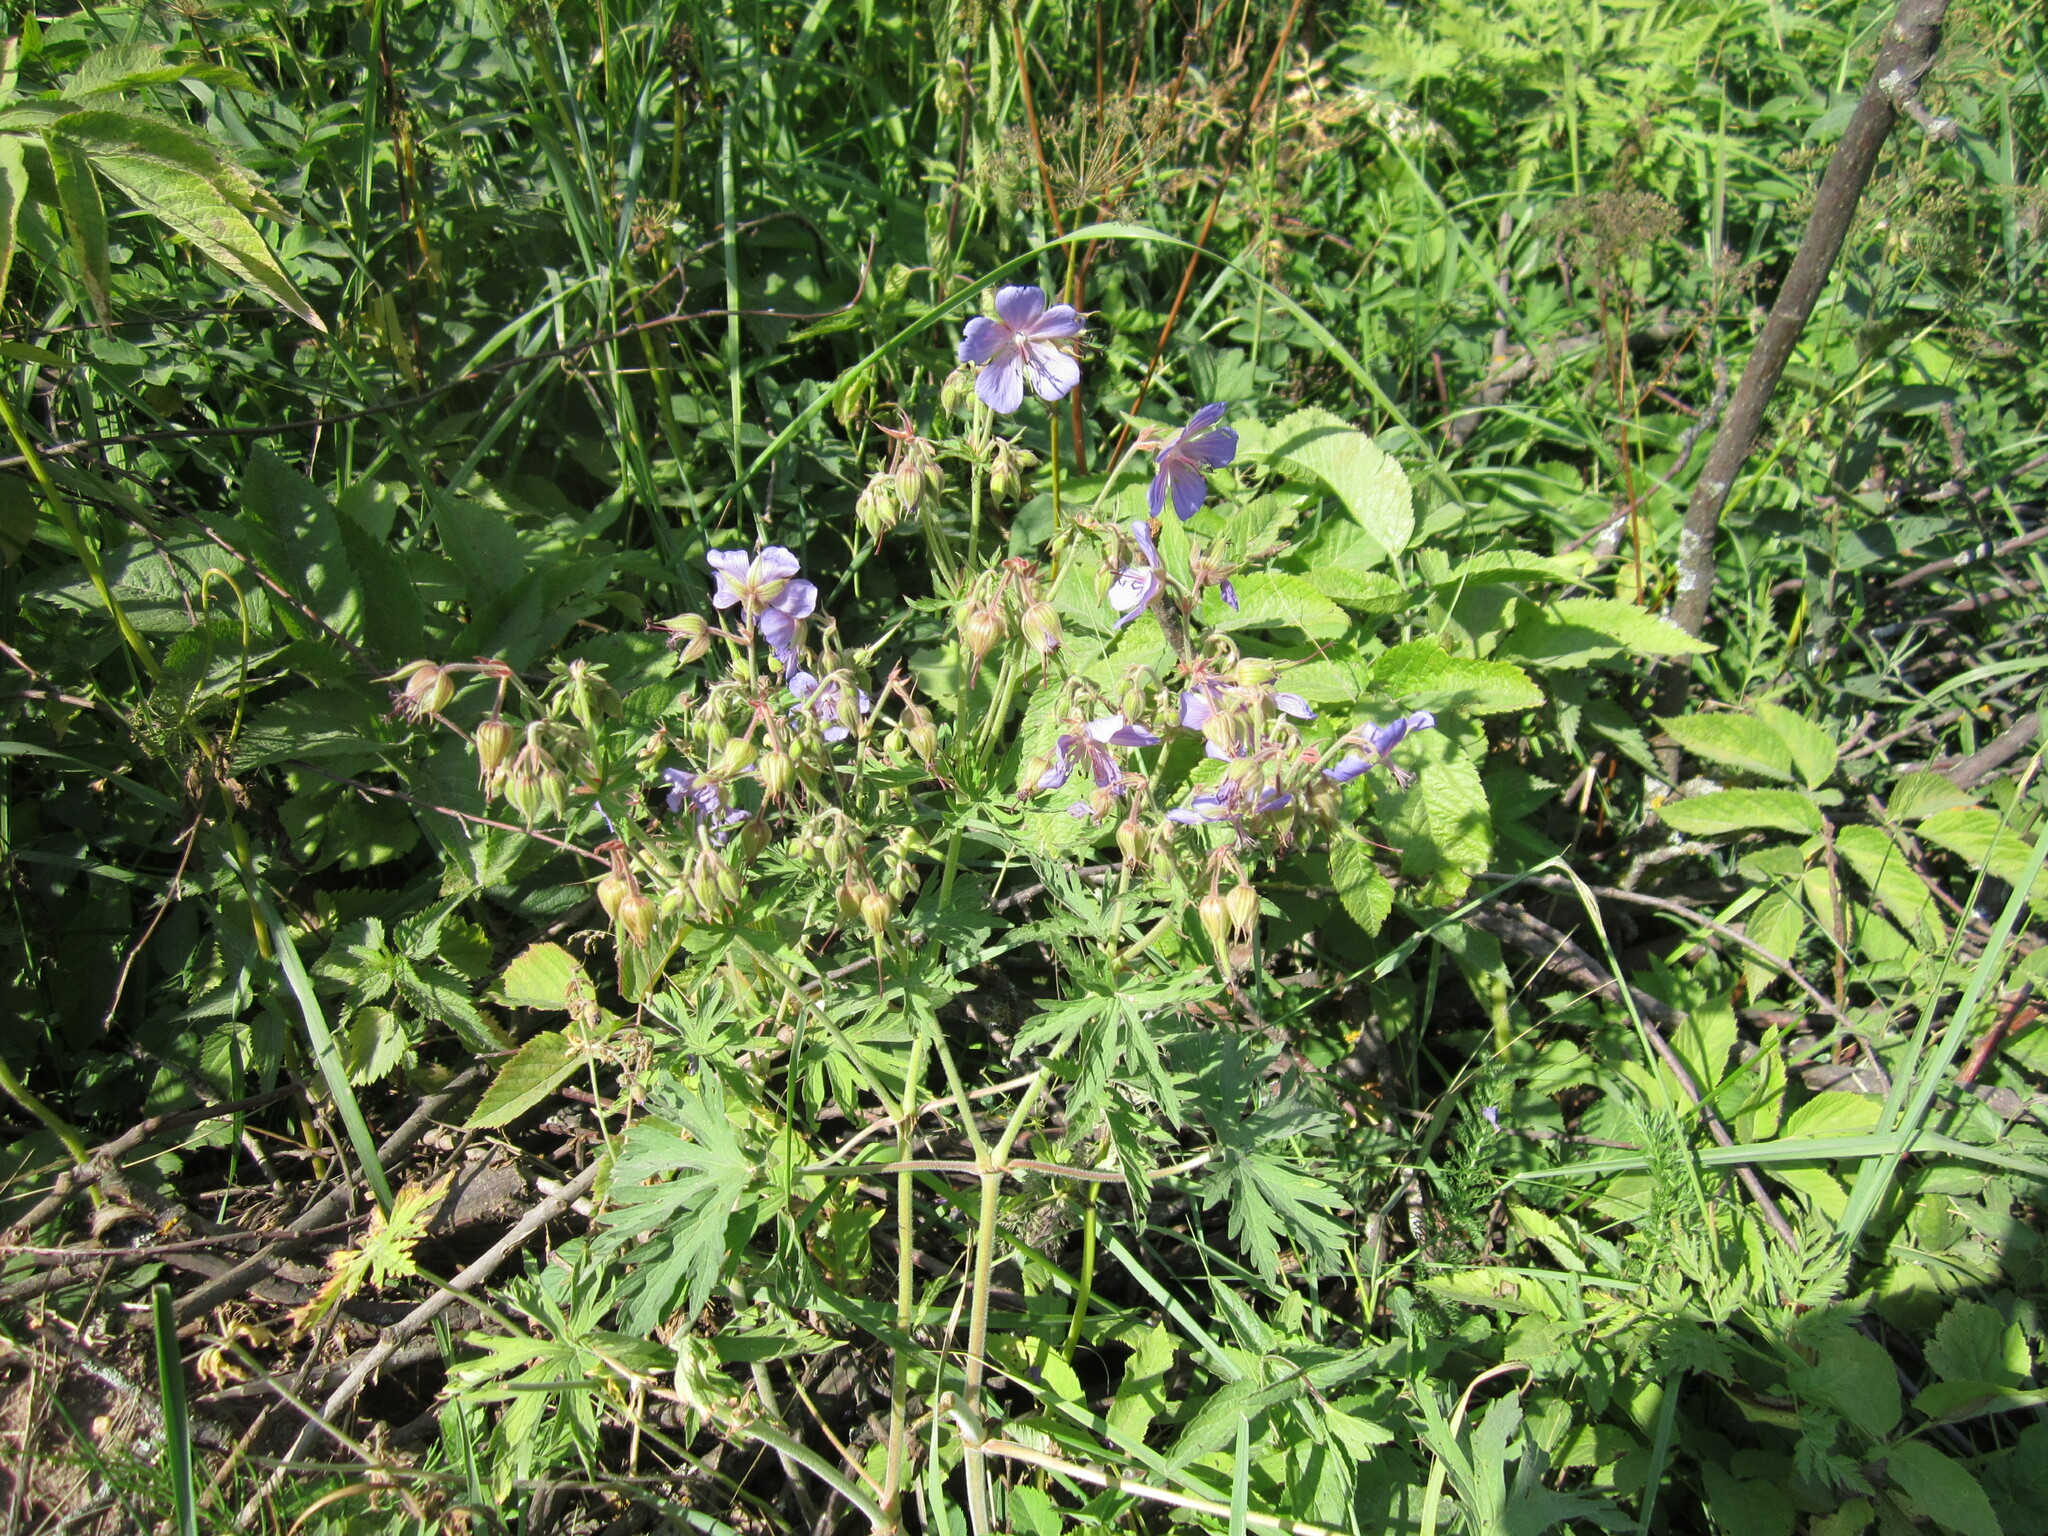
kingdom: Plantae
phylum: Tracheophyta
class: Magnoliopsida
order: Geraniales
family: Geraniaceae
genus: Geranium
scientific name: Geranium pratense
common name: Meadow crane's-bill
